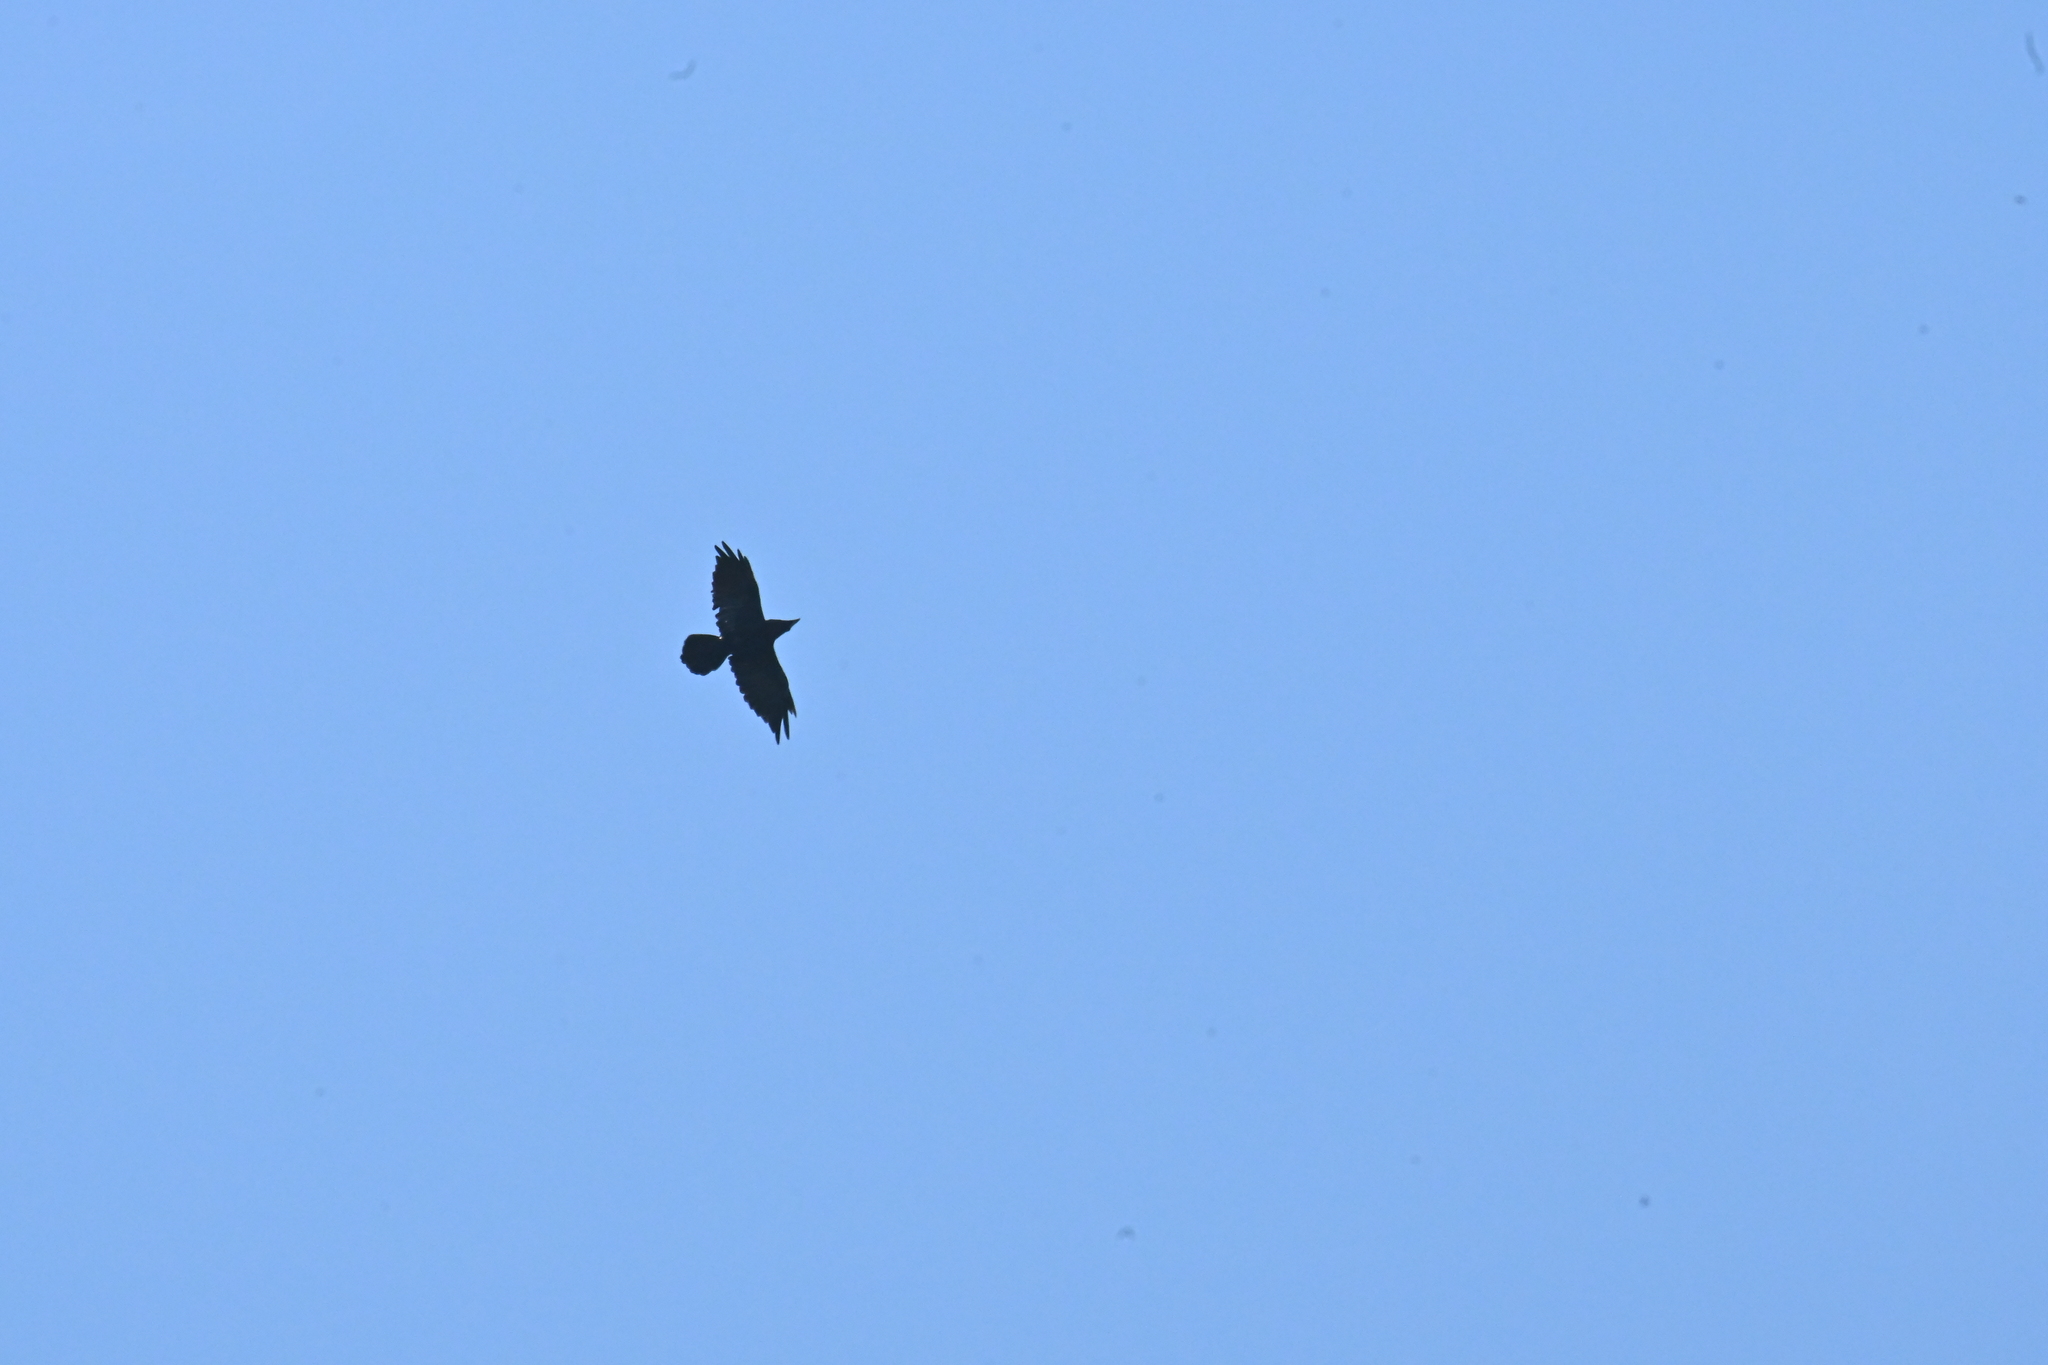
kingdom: Animalia
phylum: Chordata
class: Aves
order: Passeriformes
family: Corvidae
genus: Corvus
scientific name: Corvus corax
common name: Common raven
